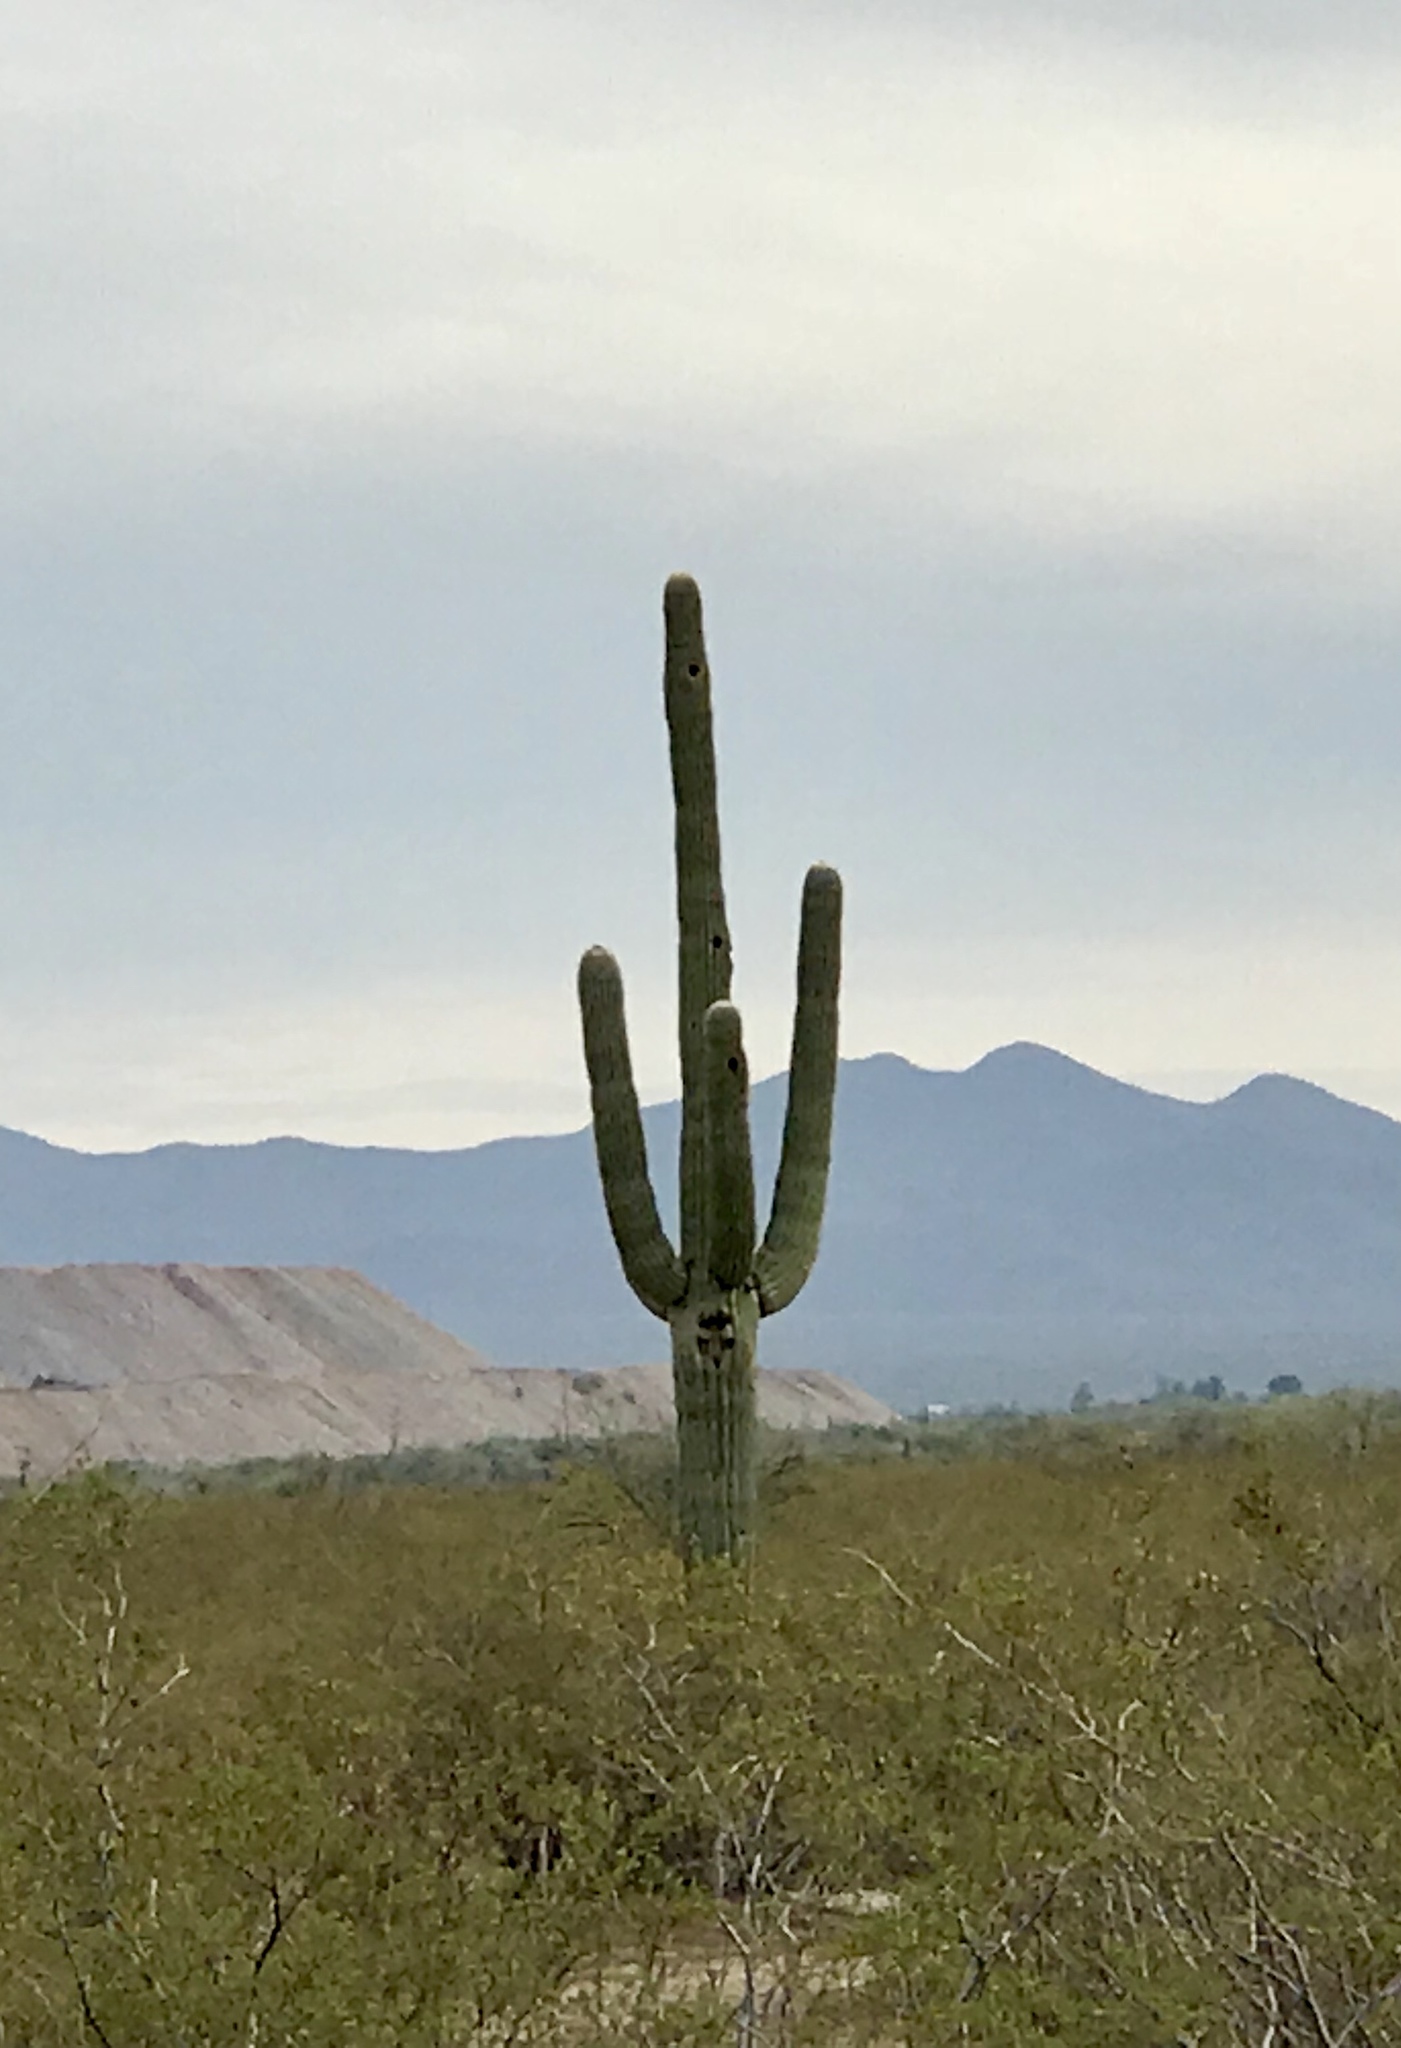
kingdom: Plantae
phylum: Tracheophyta
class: Magnoliopsida
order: Caryophyllales
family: Cactaceae
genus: Carnegiea
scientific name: Carnegiea gigantea
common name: Saguaro
